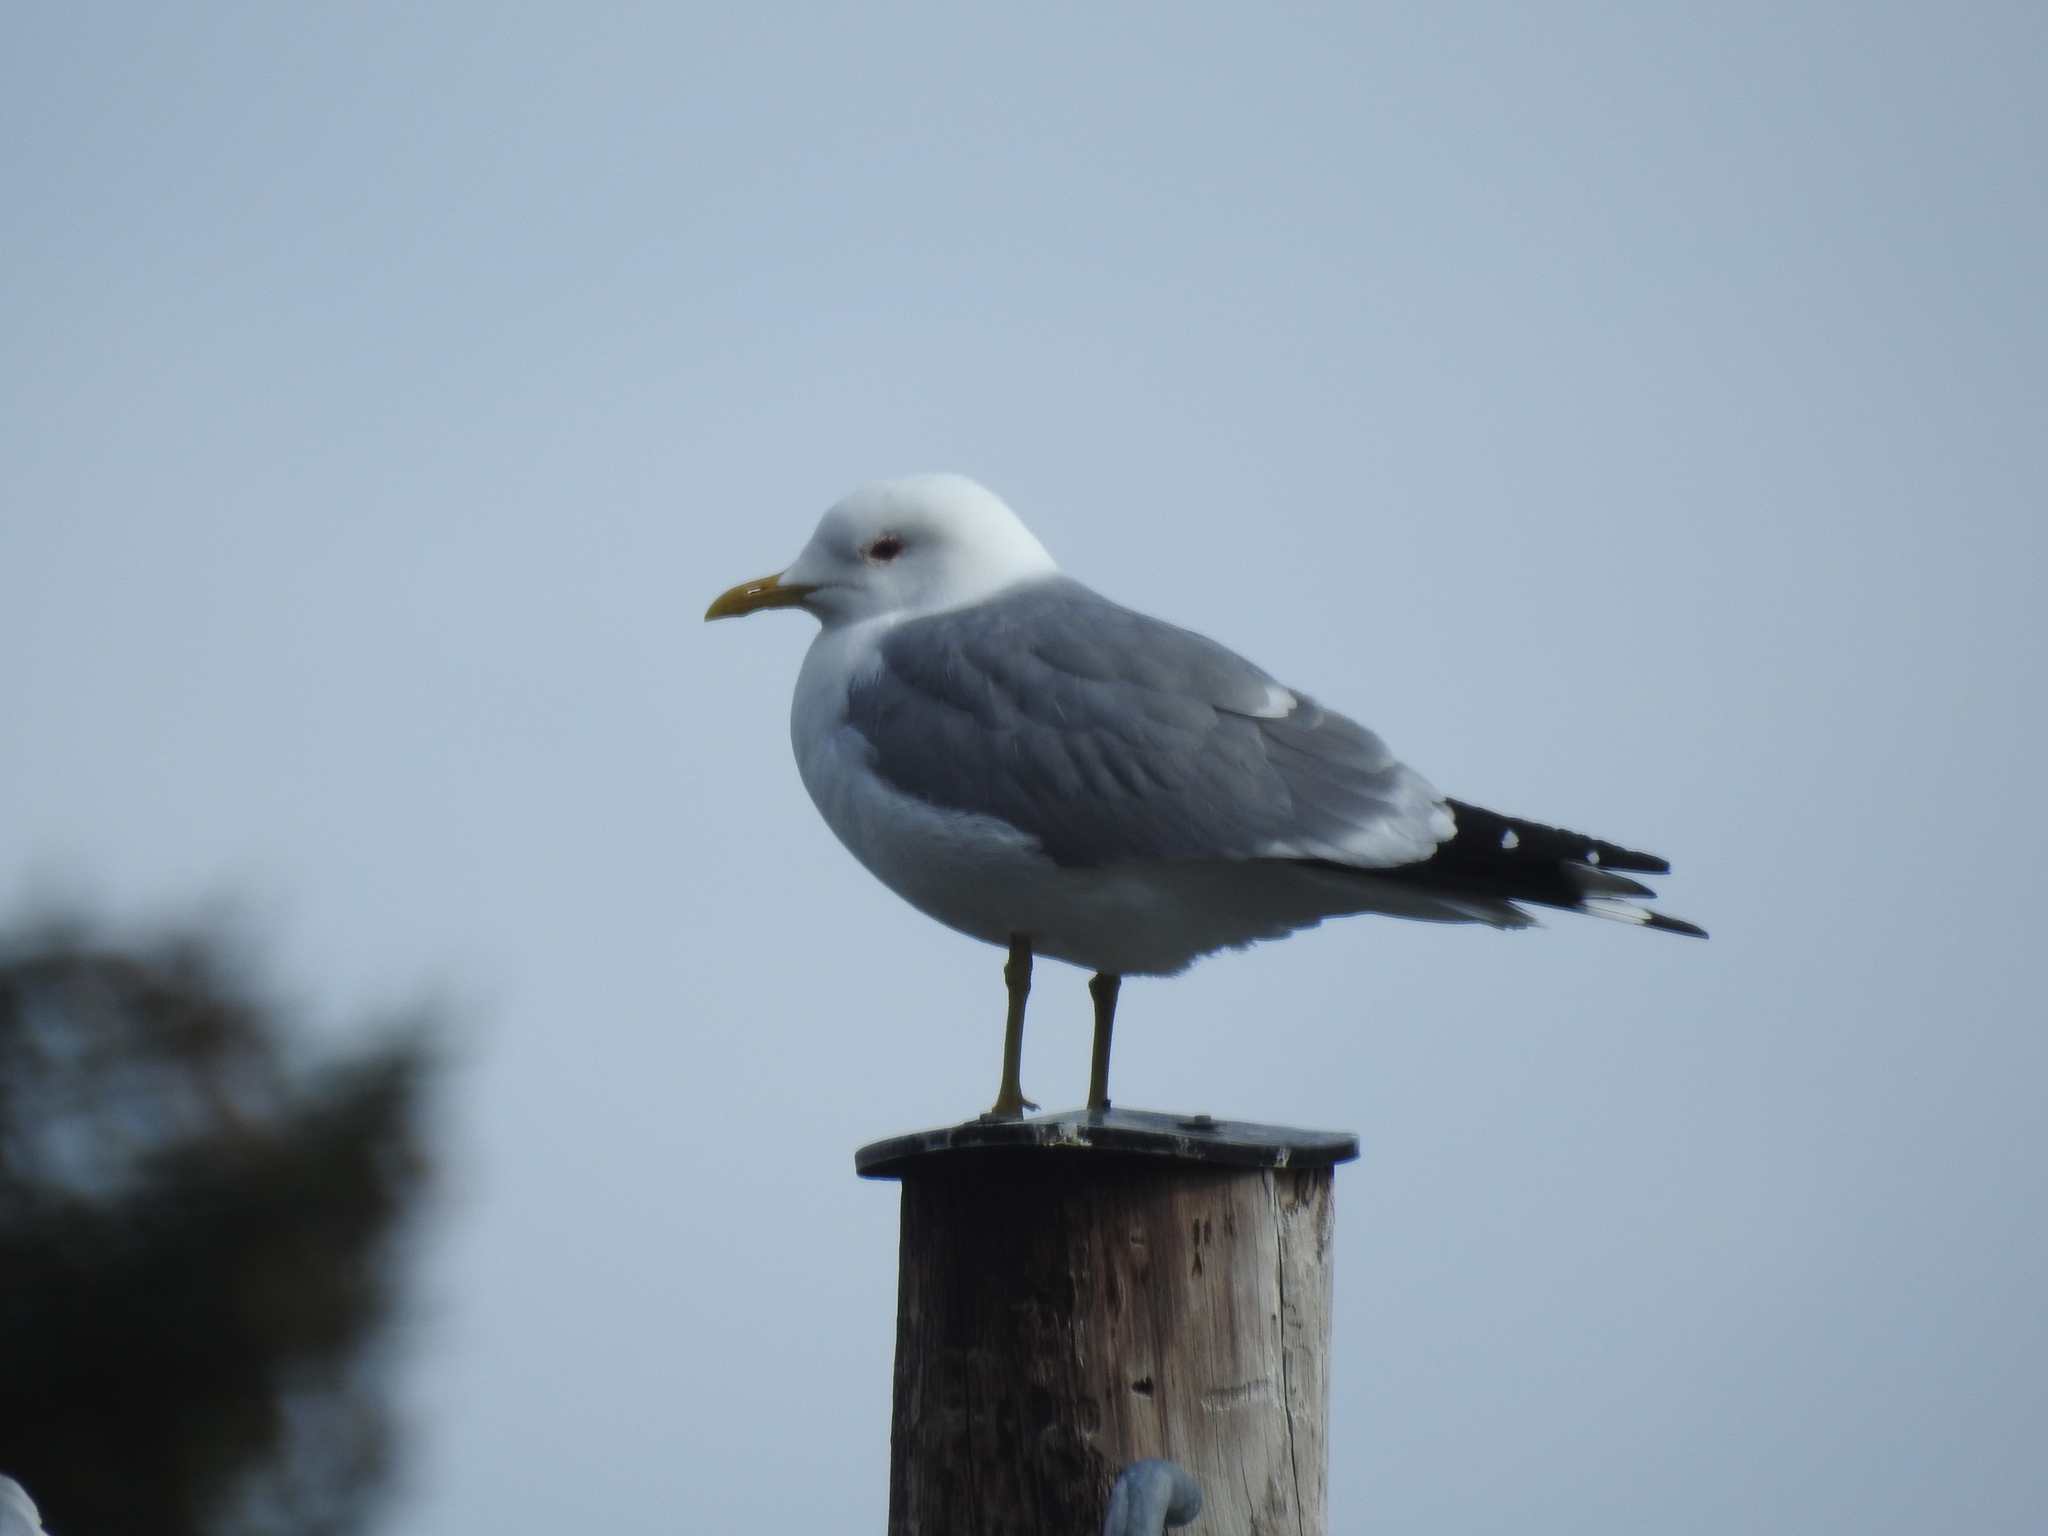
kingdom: Animalia
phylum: Chordata
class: Aves
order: Charadriiformes
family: Laridae
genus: Larus
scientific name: Larus canus
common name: Mew gull
